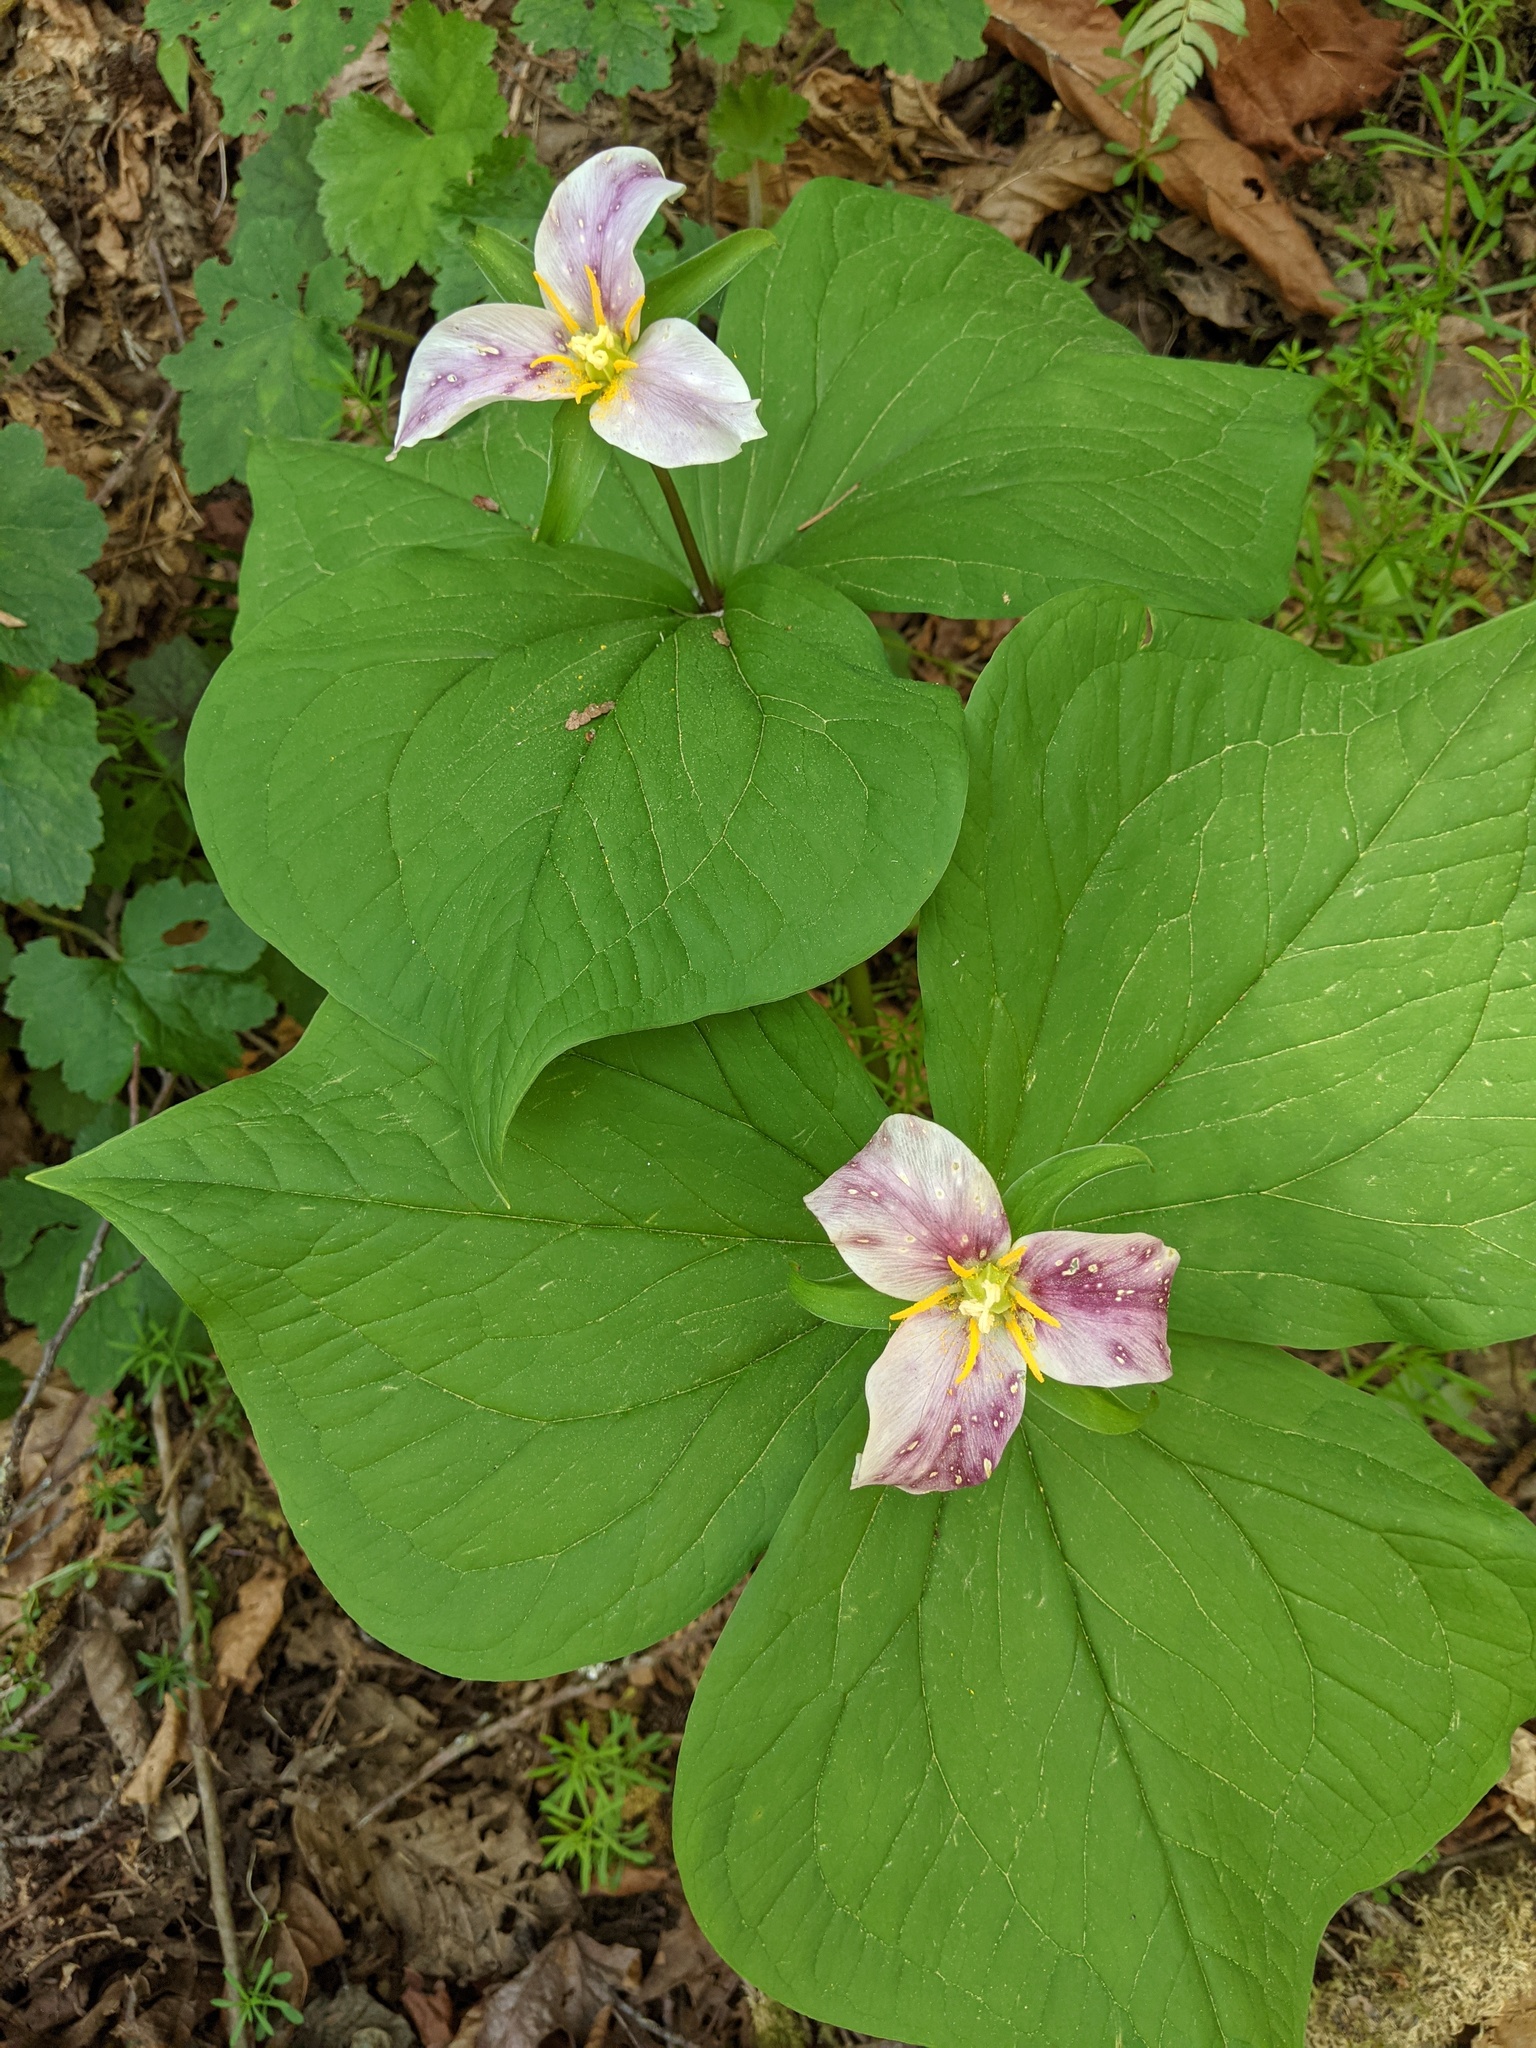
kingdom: Plantae
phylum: Tracheophyta
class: Liliopsida
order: Liliales
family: Melanthiaceae
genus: Trillium
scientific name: Trillium ovatum
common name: Pacific trillium
